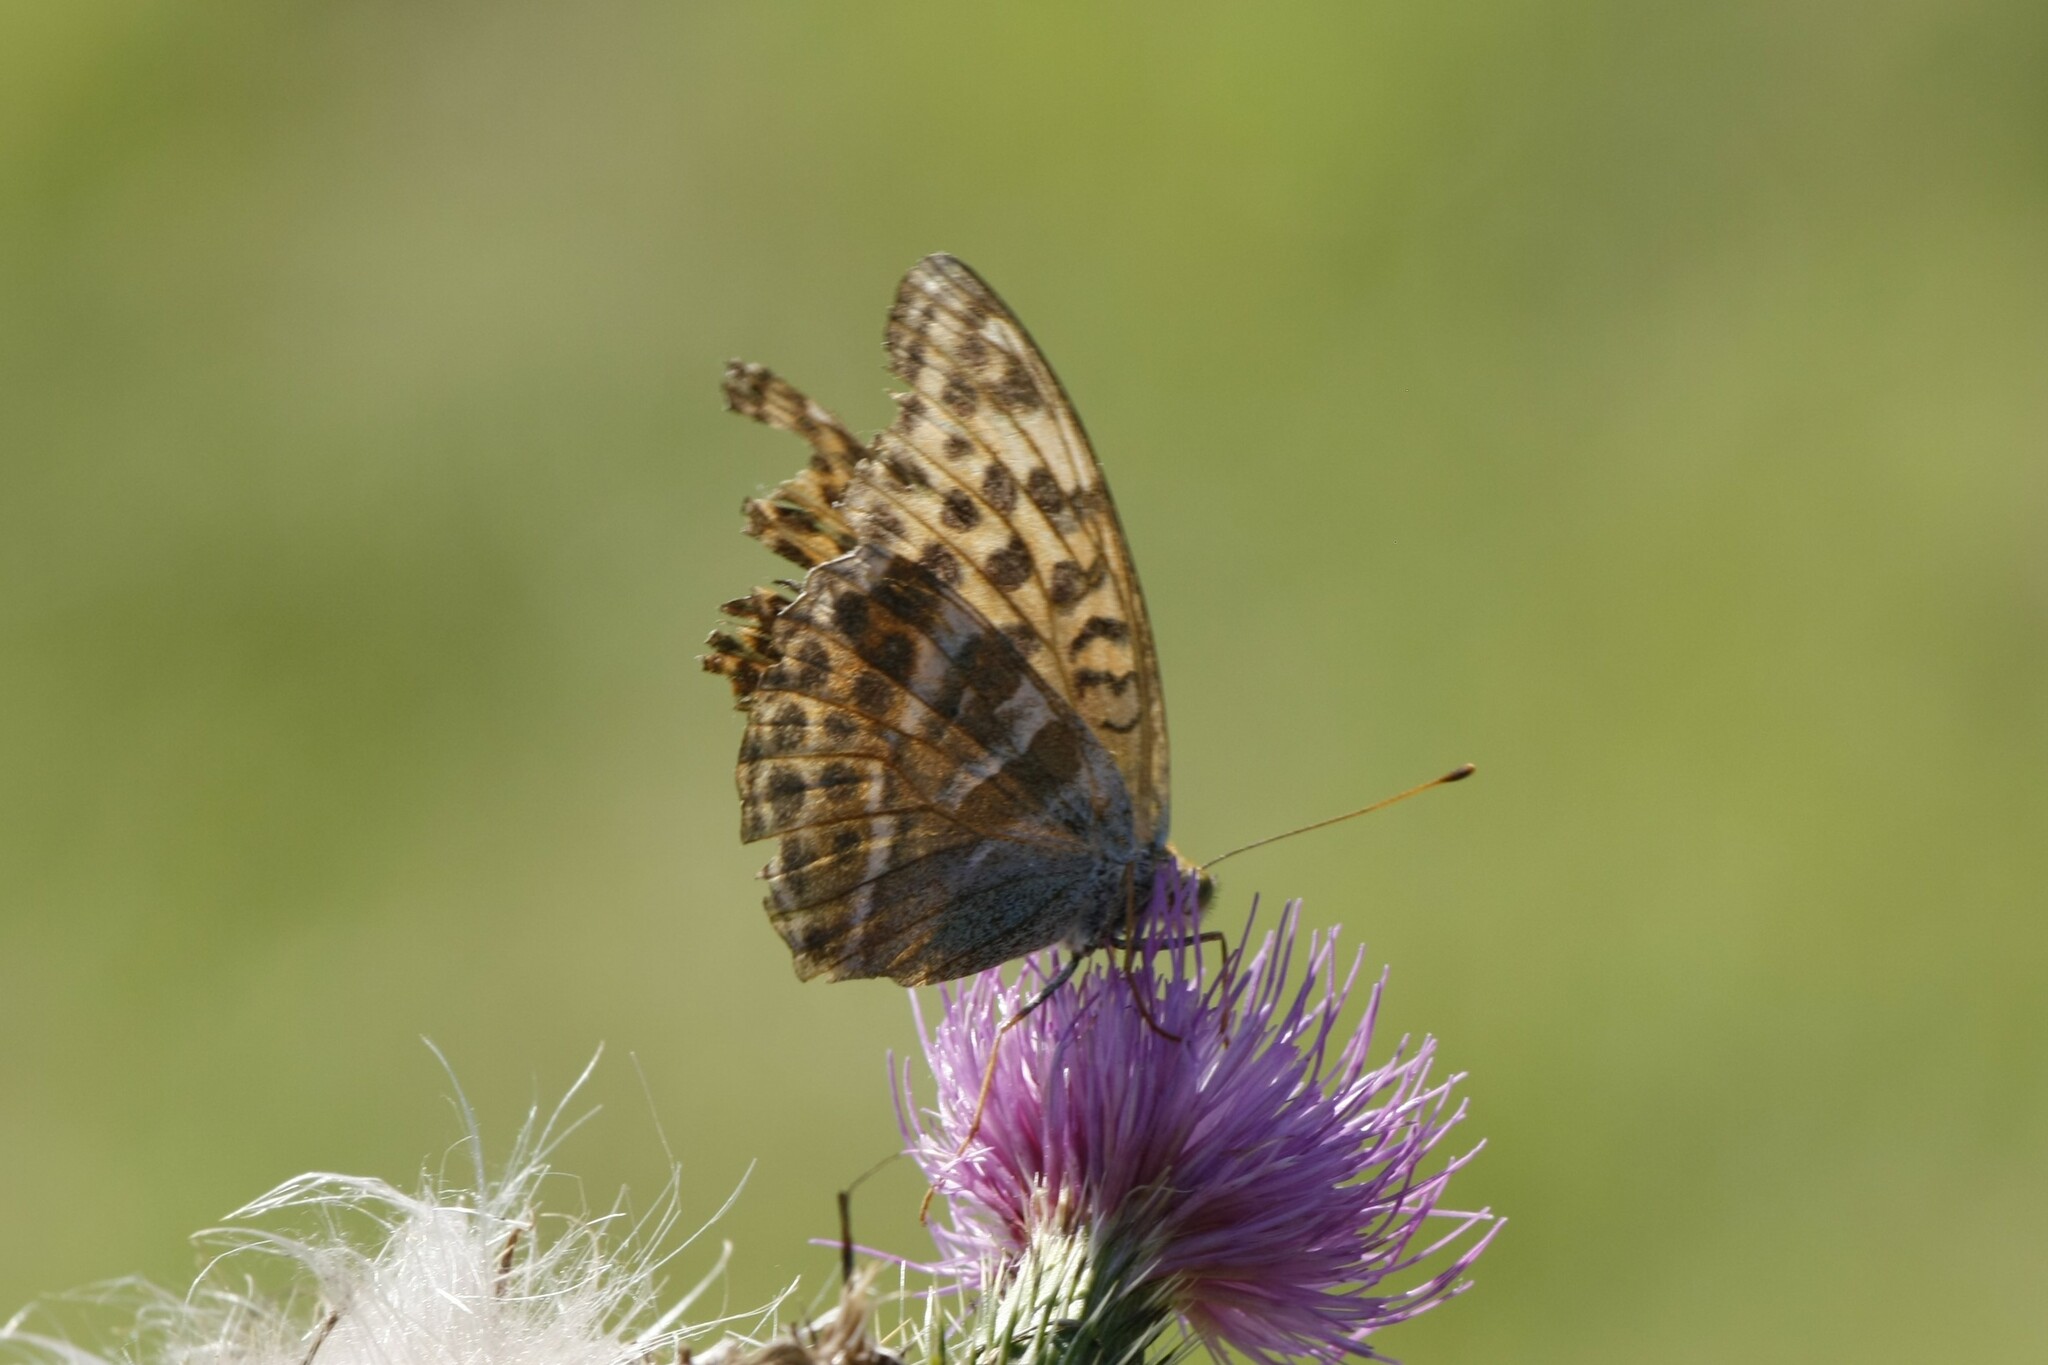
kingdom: Animalia
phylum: Arthropoda
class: Insecta
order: Lepidoptera
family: Nymphalidae
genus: Argynnis
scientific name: Argynnis paphia
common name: Silver-washed fritillary
